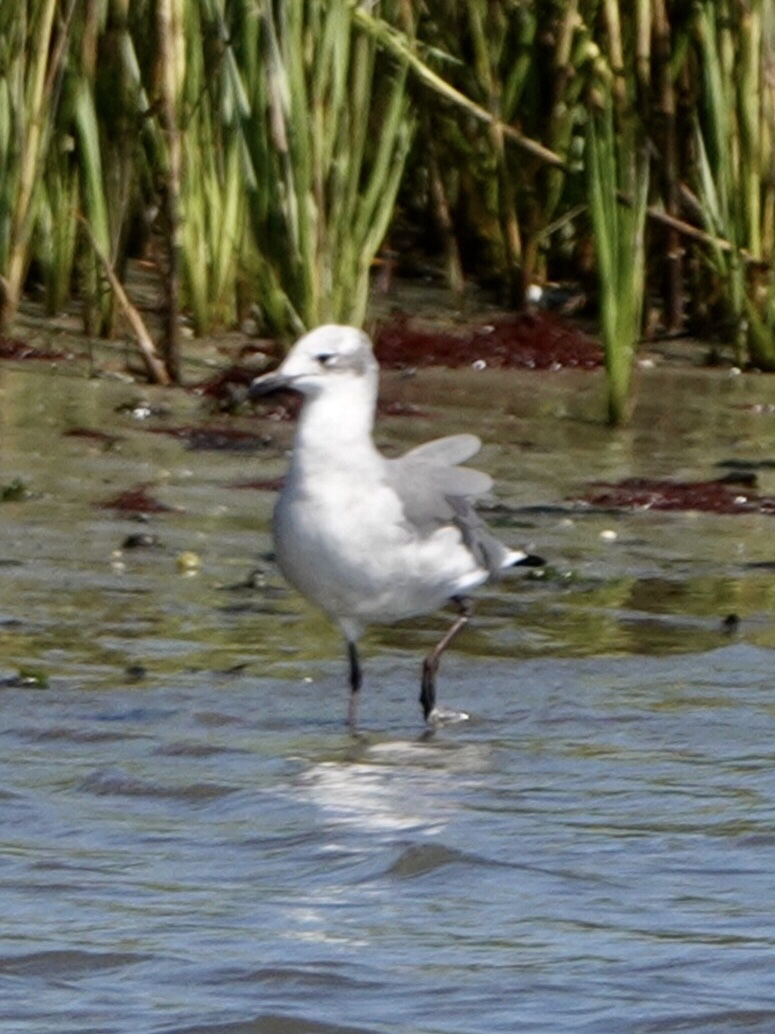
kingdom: Animalia
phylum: Chordata
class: Aves
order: Charadriiformes
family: Laridae
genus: Leucophaeus
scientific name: Leucophaeus atricilla
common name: Laughing gull
